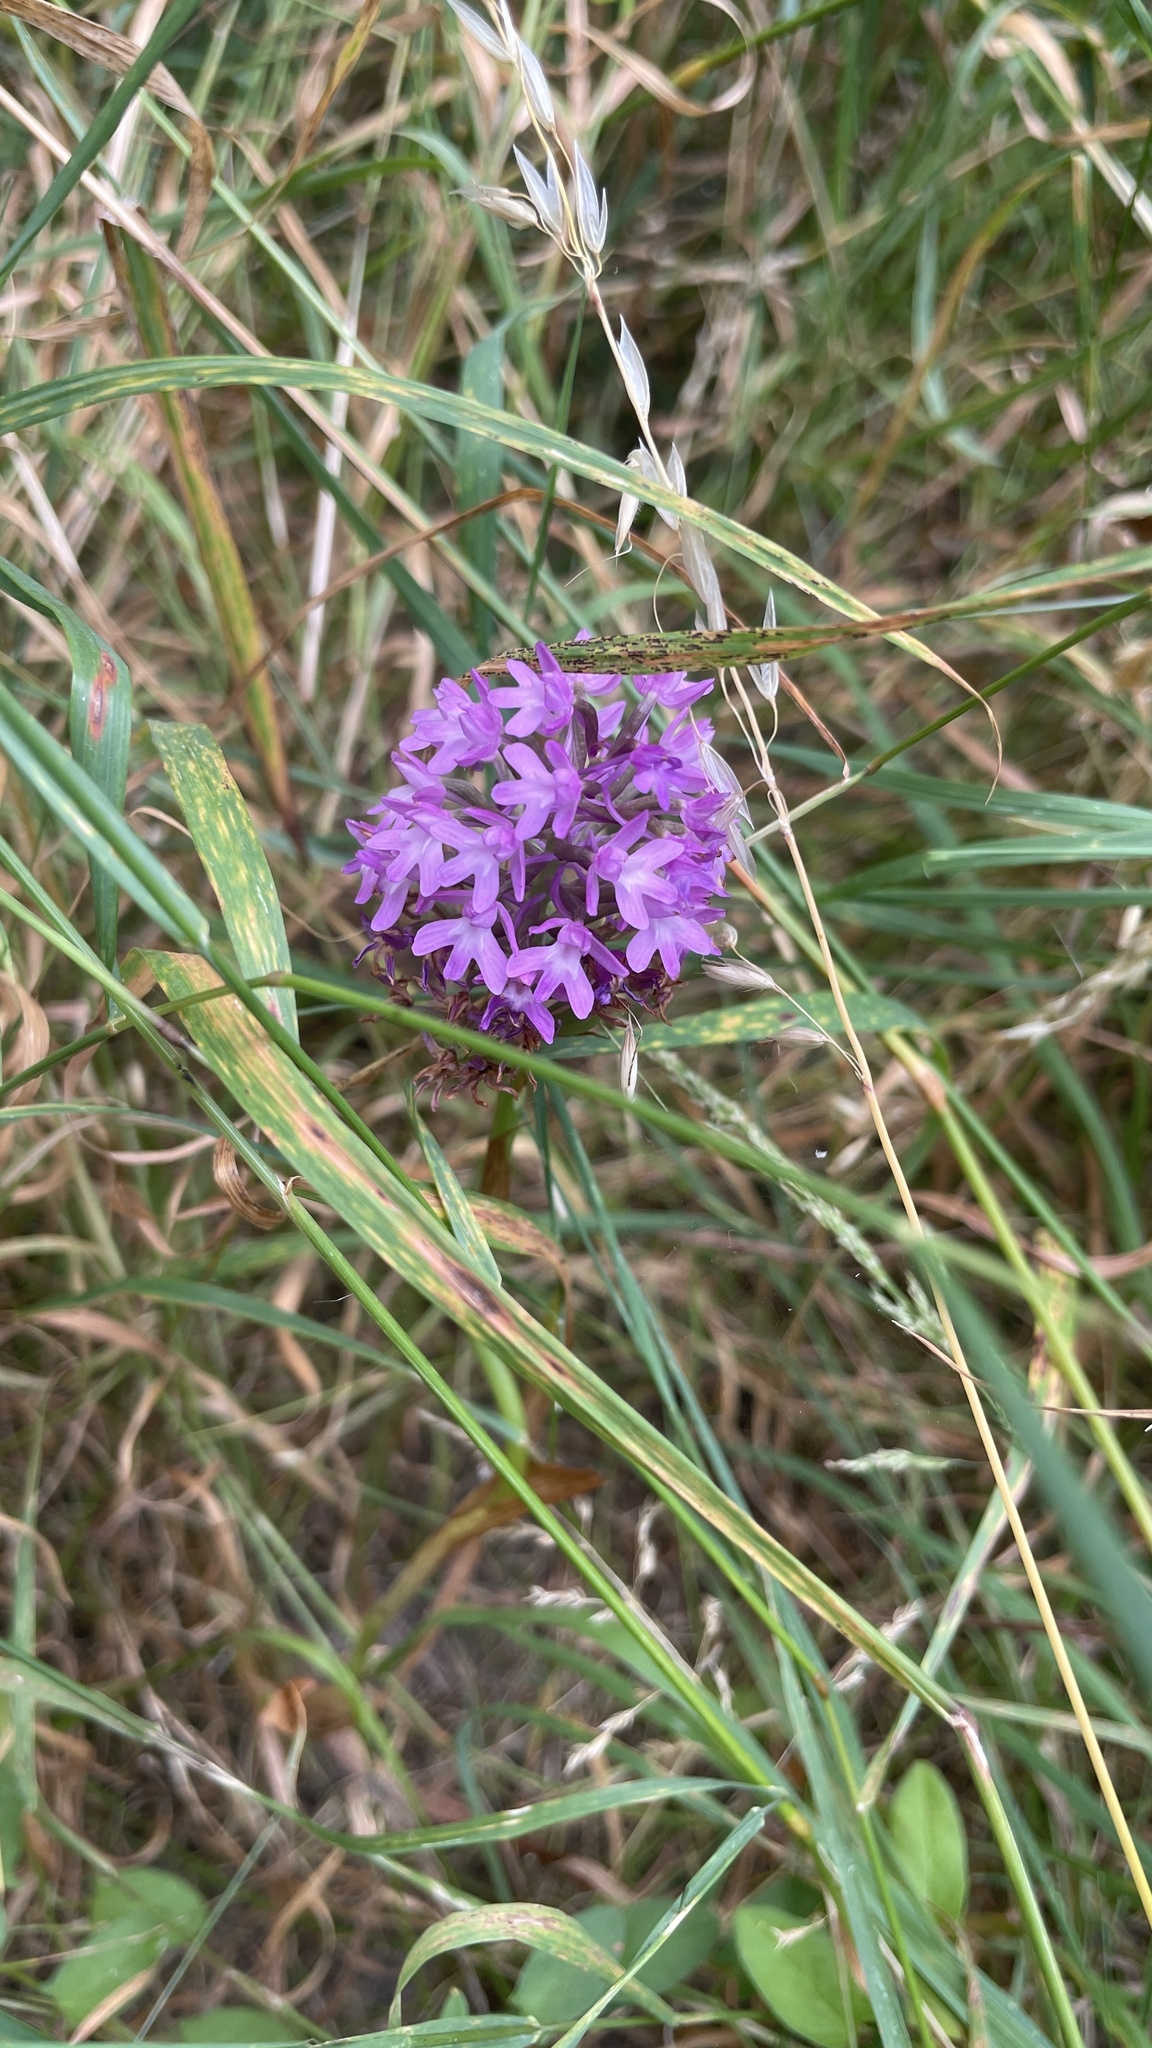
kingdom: Plantae
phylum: Tracheophyta
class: Liliopsida
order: Asparagales
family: Orchidaceae
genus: Anacamptis
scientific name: Anacamptis pyramidalis
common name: Pyramidal orchid
